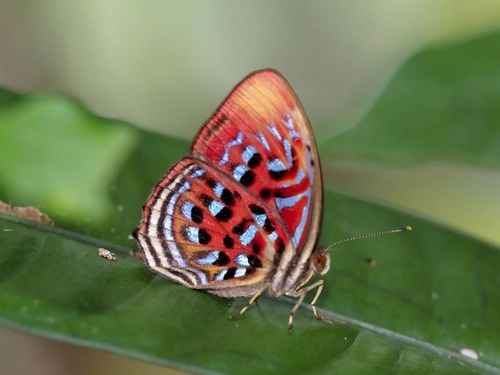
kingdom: Animalia
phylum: Arthropoda
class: Insecta
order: Lepidoptera
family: Riodinidae
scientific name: Riodinidae
